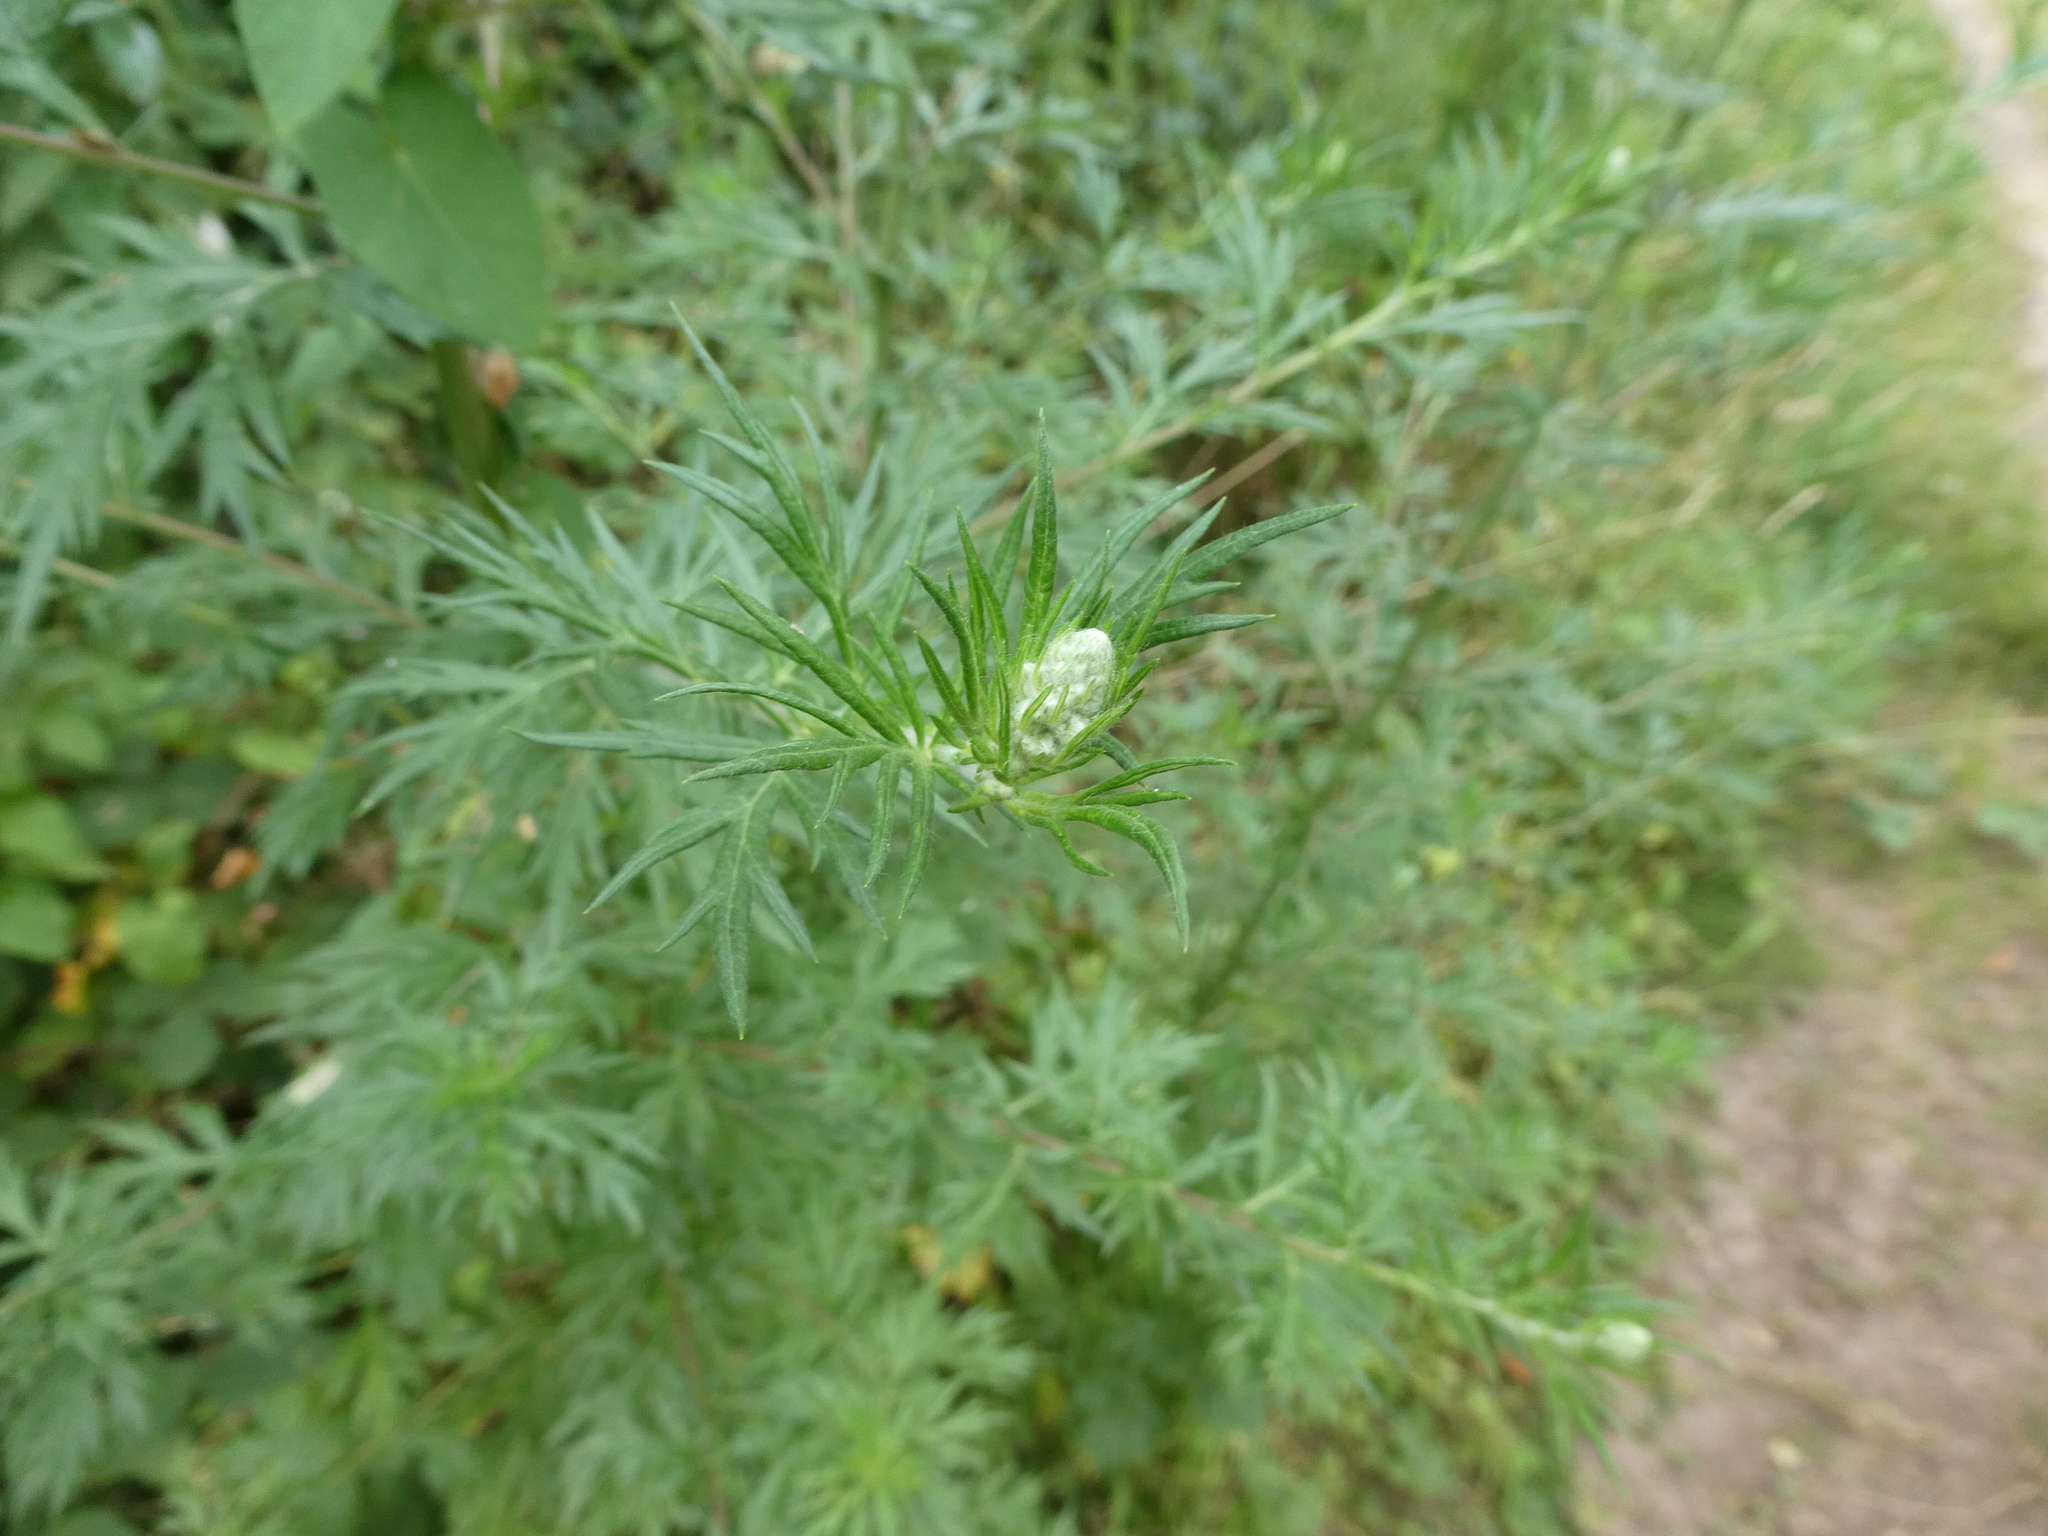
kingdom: Plantae
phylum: Tracheophyta
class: Magnoliopsida
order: Asterales
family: Asteraceae
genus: Artemisia
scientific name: Artemisia vulgaris
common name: Mugwort
